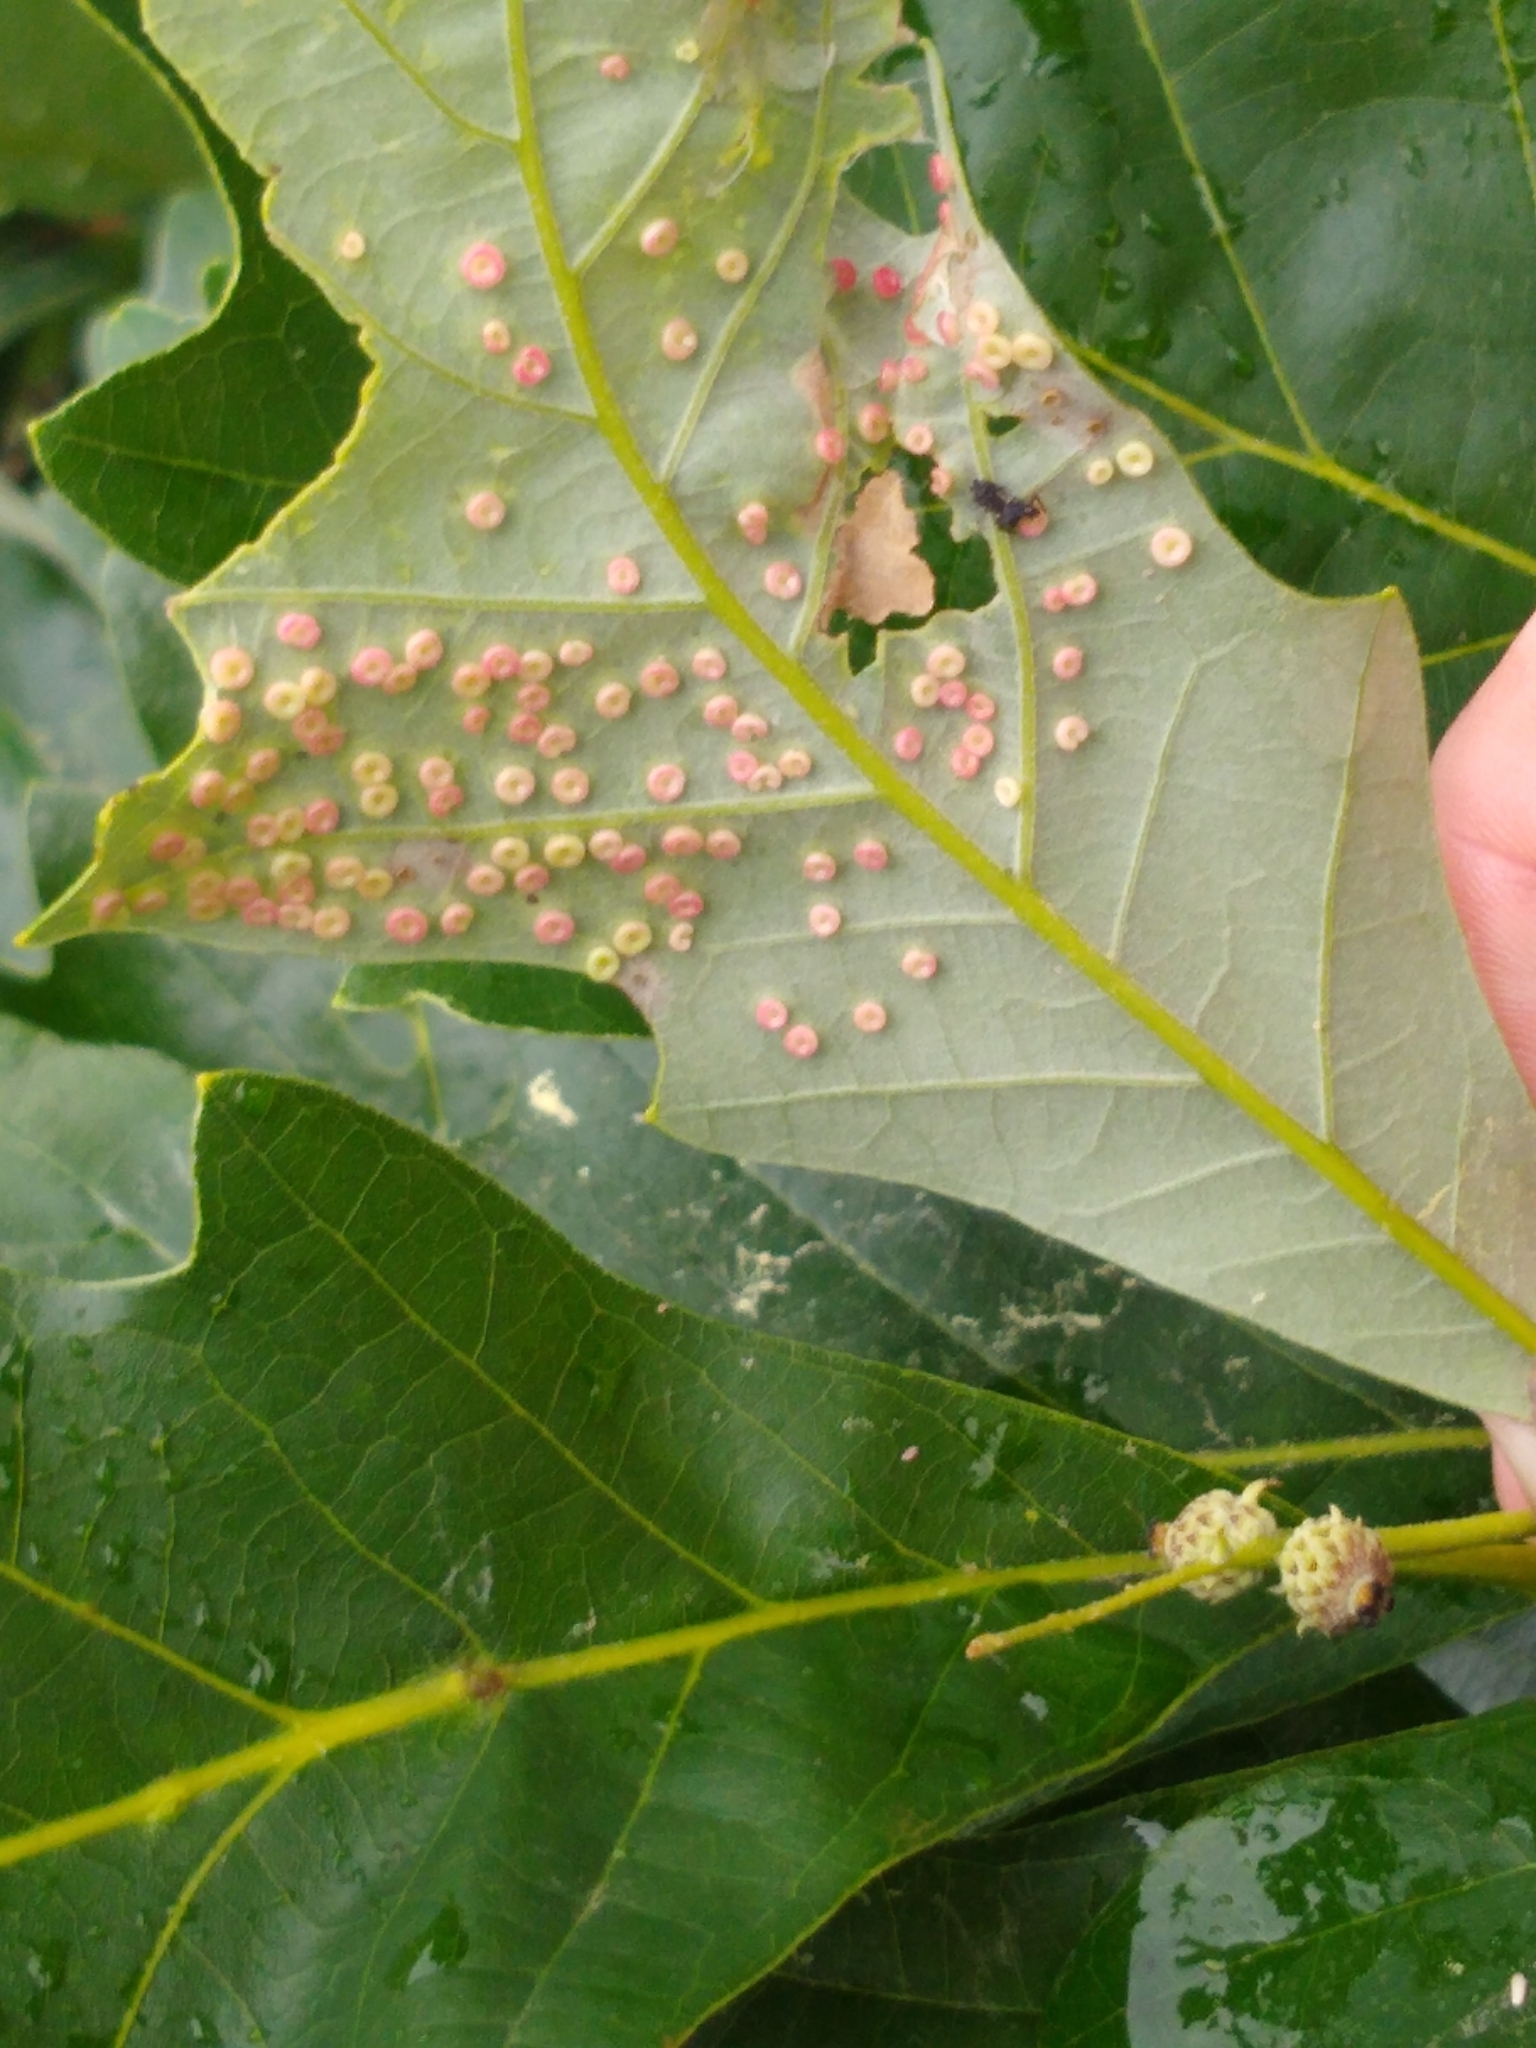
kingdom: Animalia
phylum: Arthropoda
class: Insecta
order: Hymenoptera
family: Cynipidae
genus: Neuroterus
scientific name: Neuroterus
